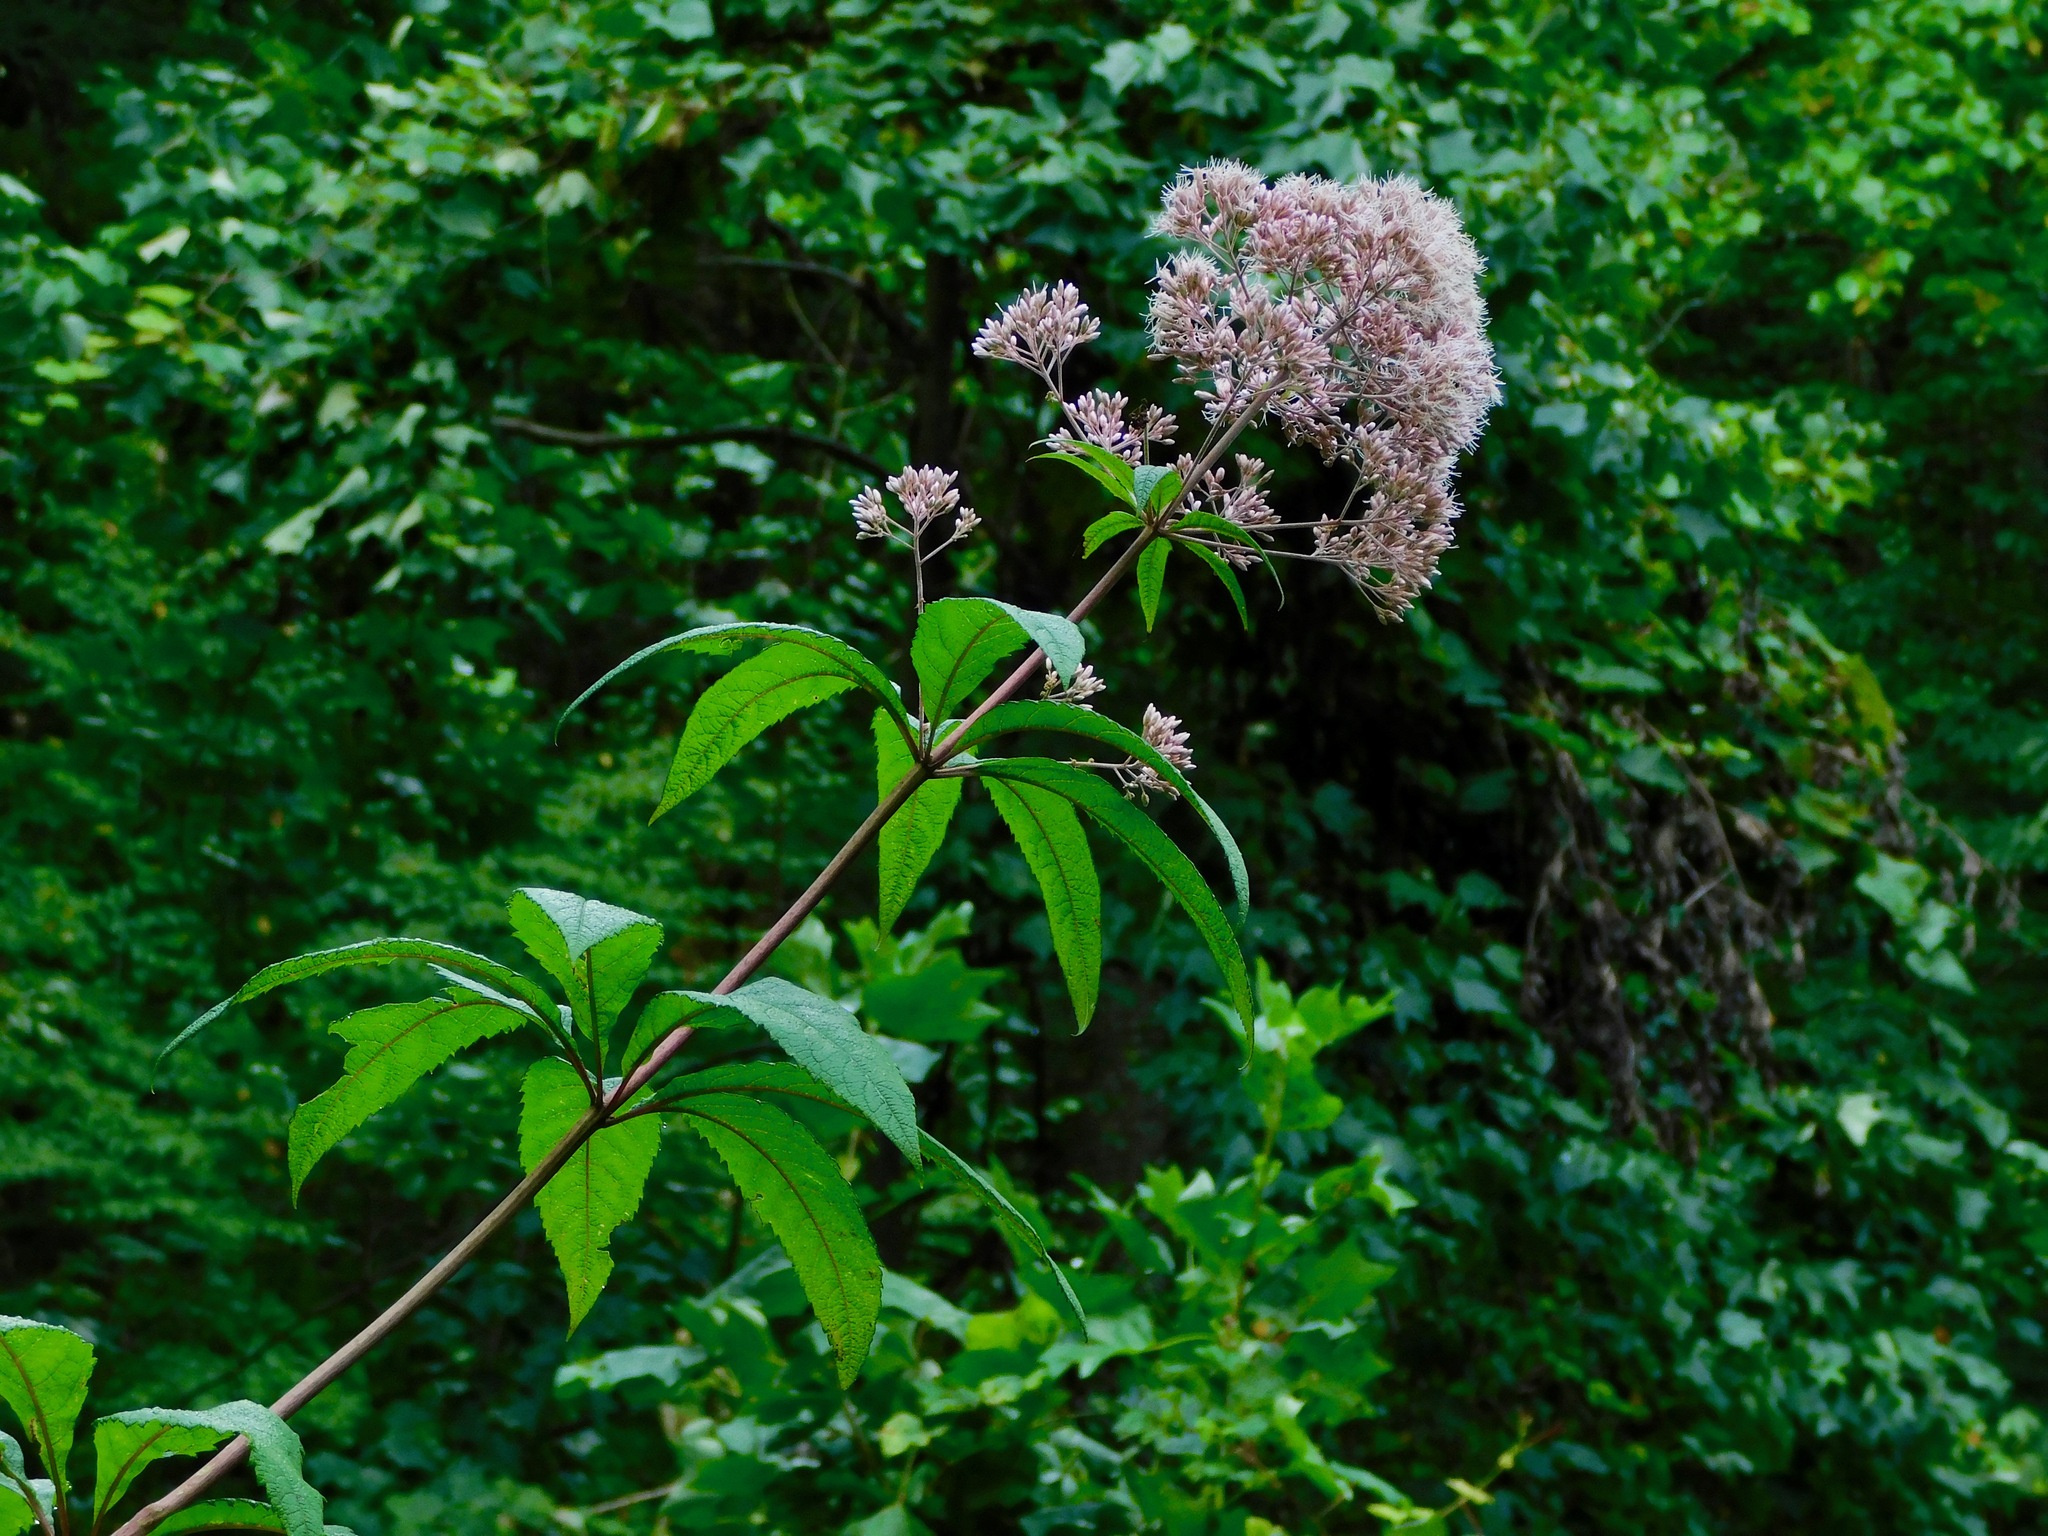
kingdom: Plantae
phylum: Tracheophyta
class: Magnoliopsida
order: Asterales
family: Asteraceae
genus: Eutrochium
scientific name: Eutrochium fistulosum
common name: Trumpetweed
